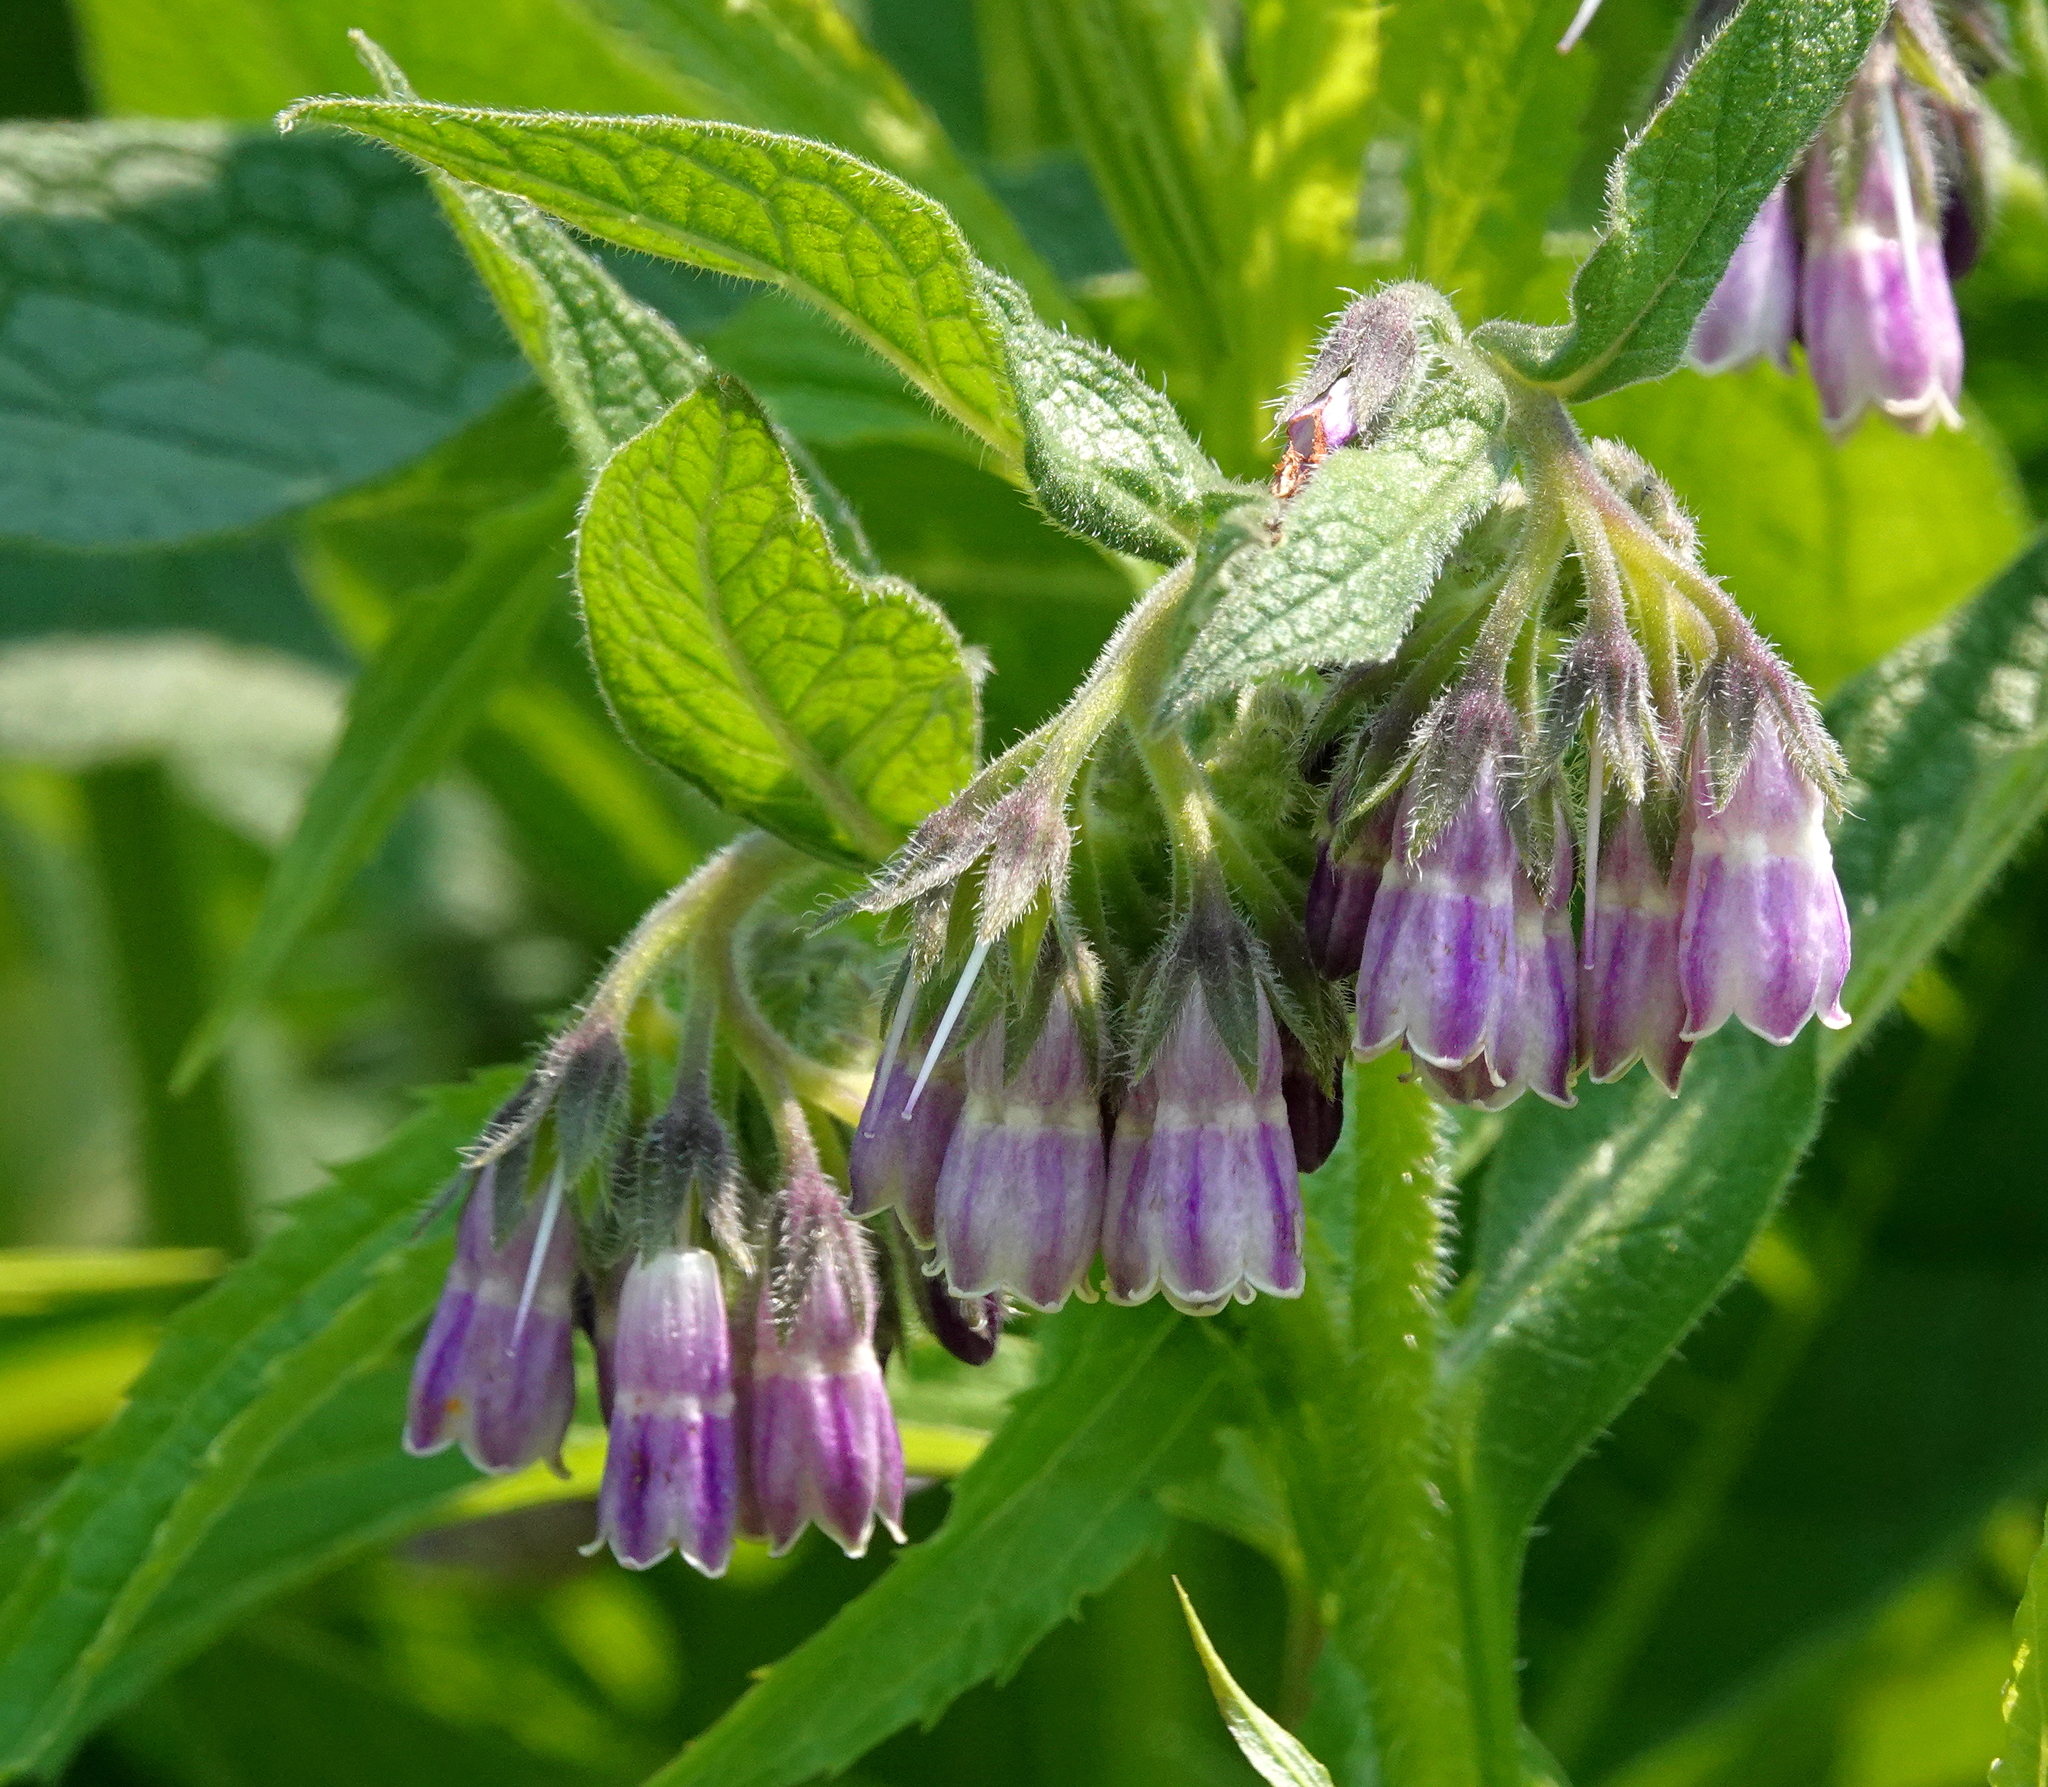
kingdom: Plantae
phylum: Tracheophyta
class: Magnoliopsida
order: Boraginales
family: Boraginaceae
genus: Symphytum
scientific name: Symphytum officinale
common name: Common comfrey
